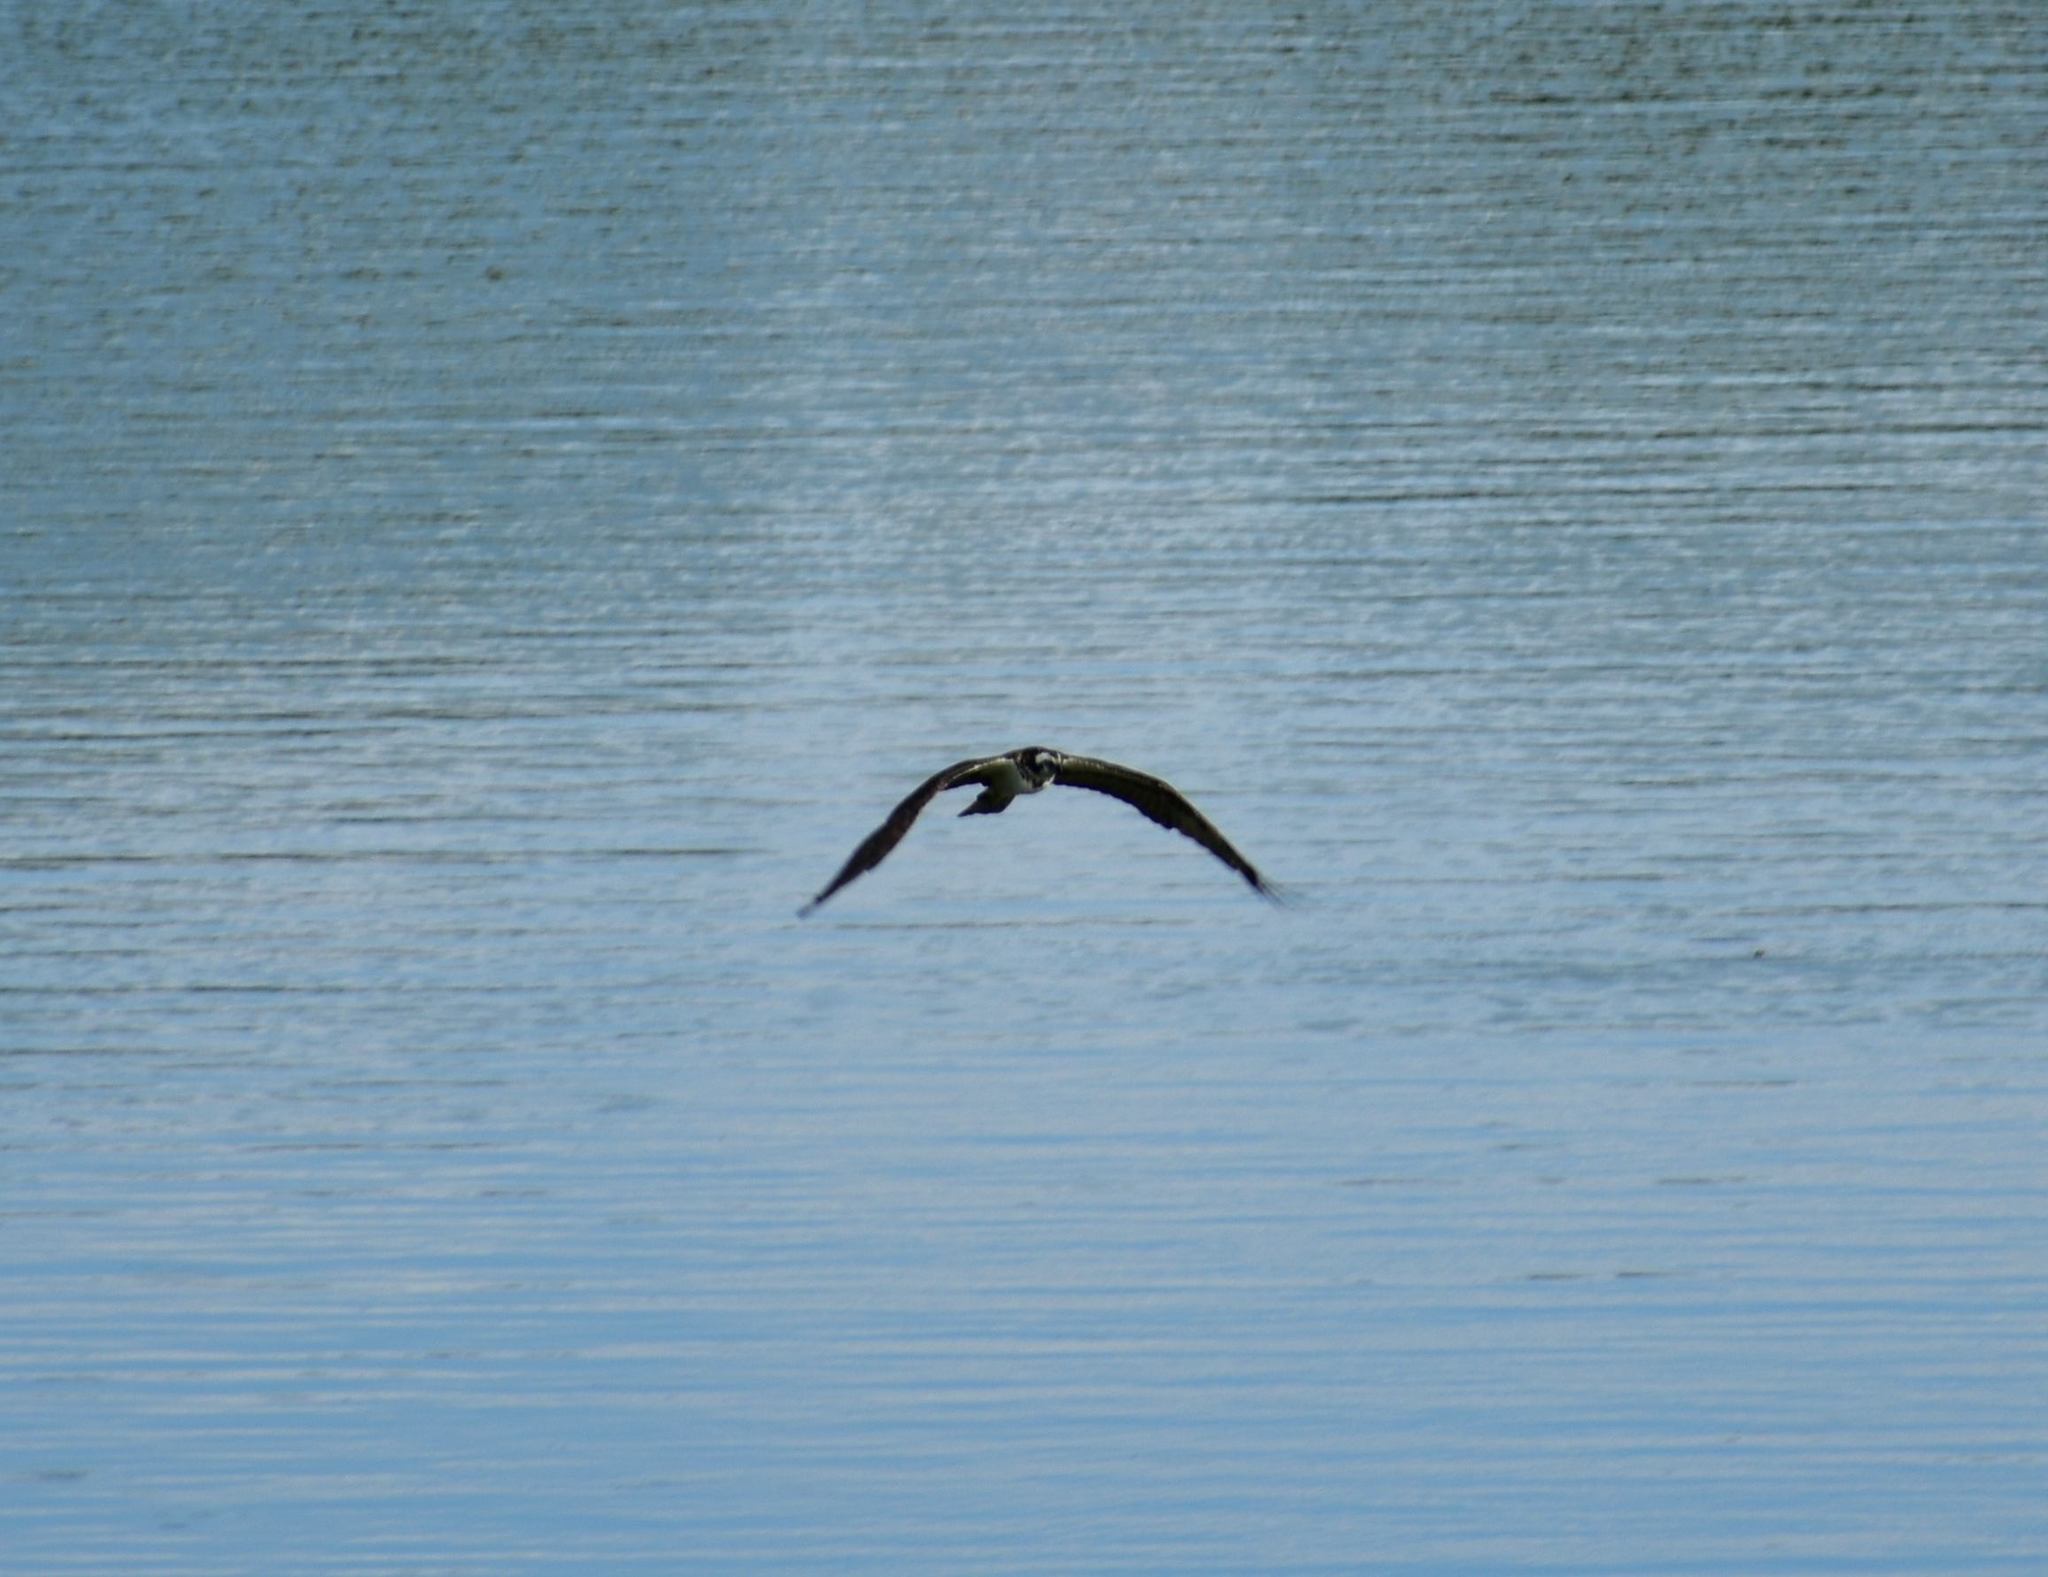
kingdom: Animalia
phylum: Chordata
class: Aves
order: Accipitriformes
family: Pandionidae
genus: Pandion
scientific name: Pandion haliaetus
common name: Osprey
